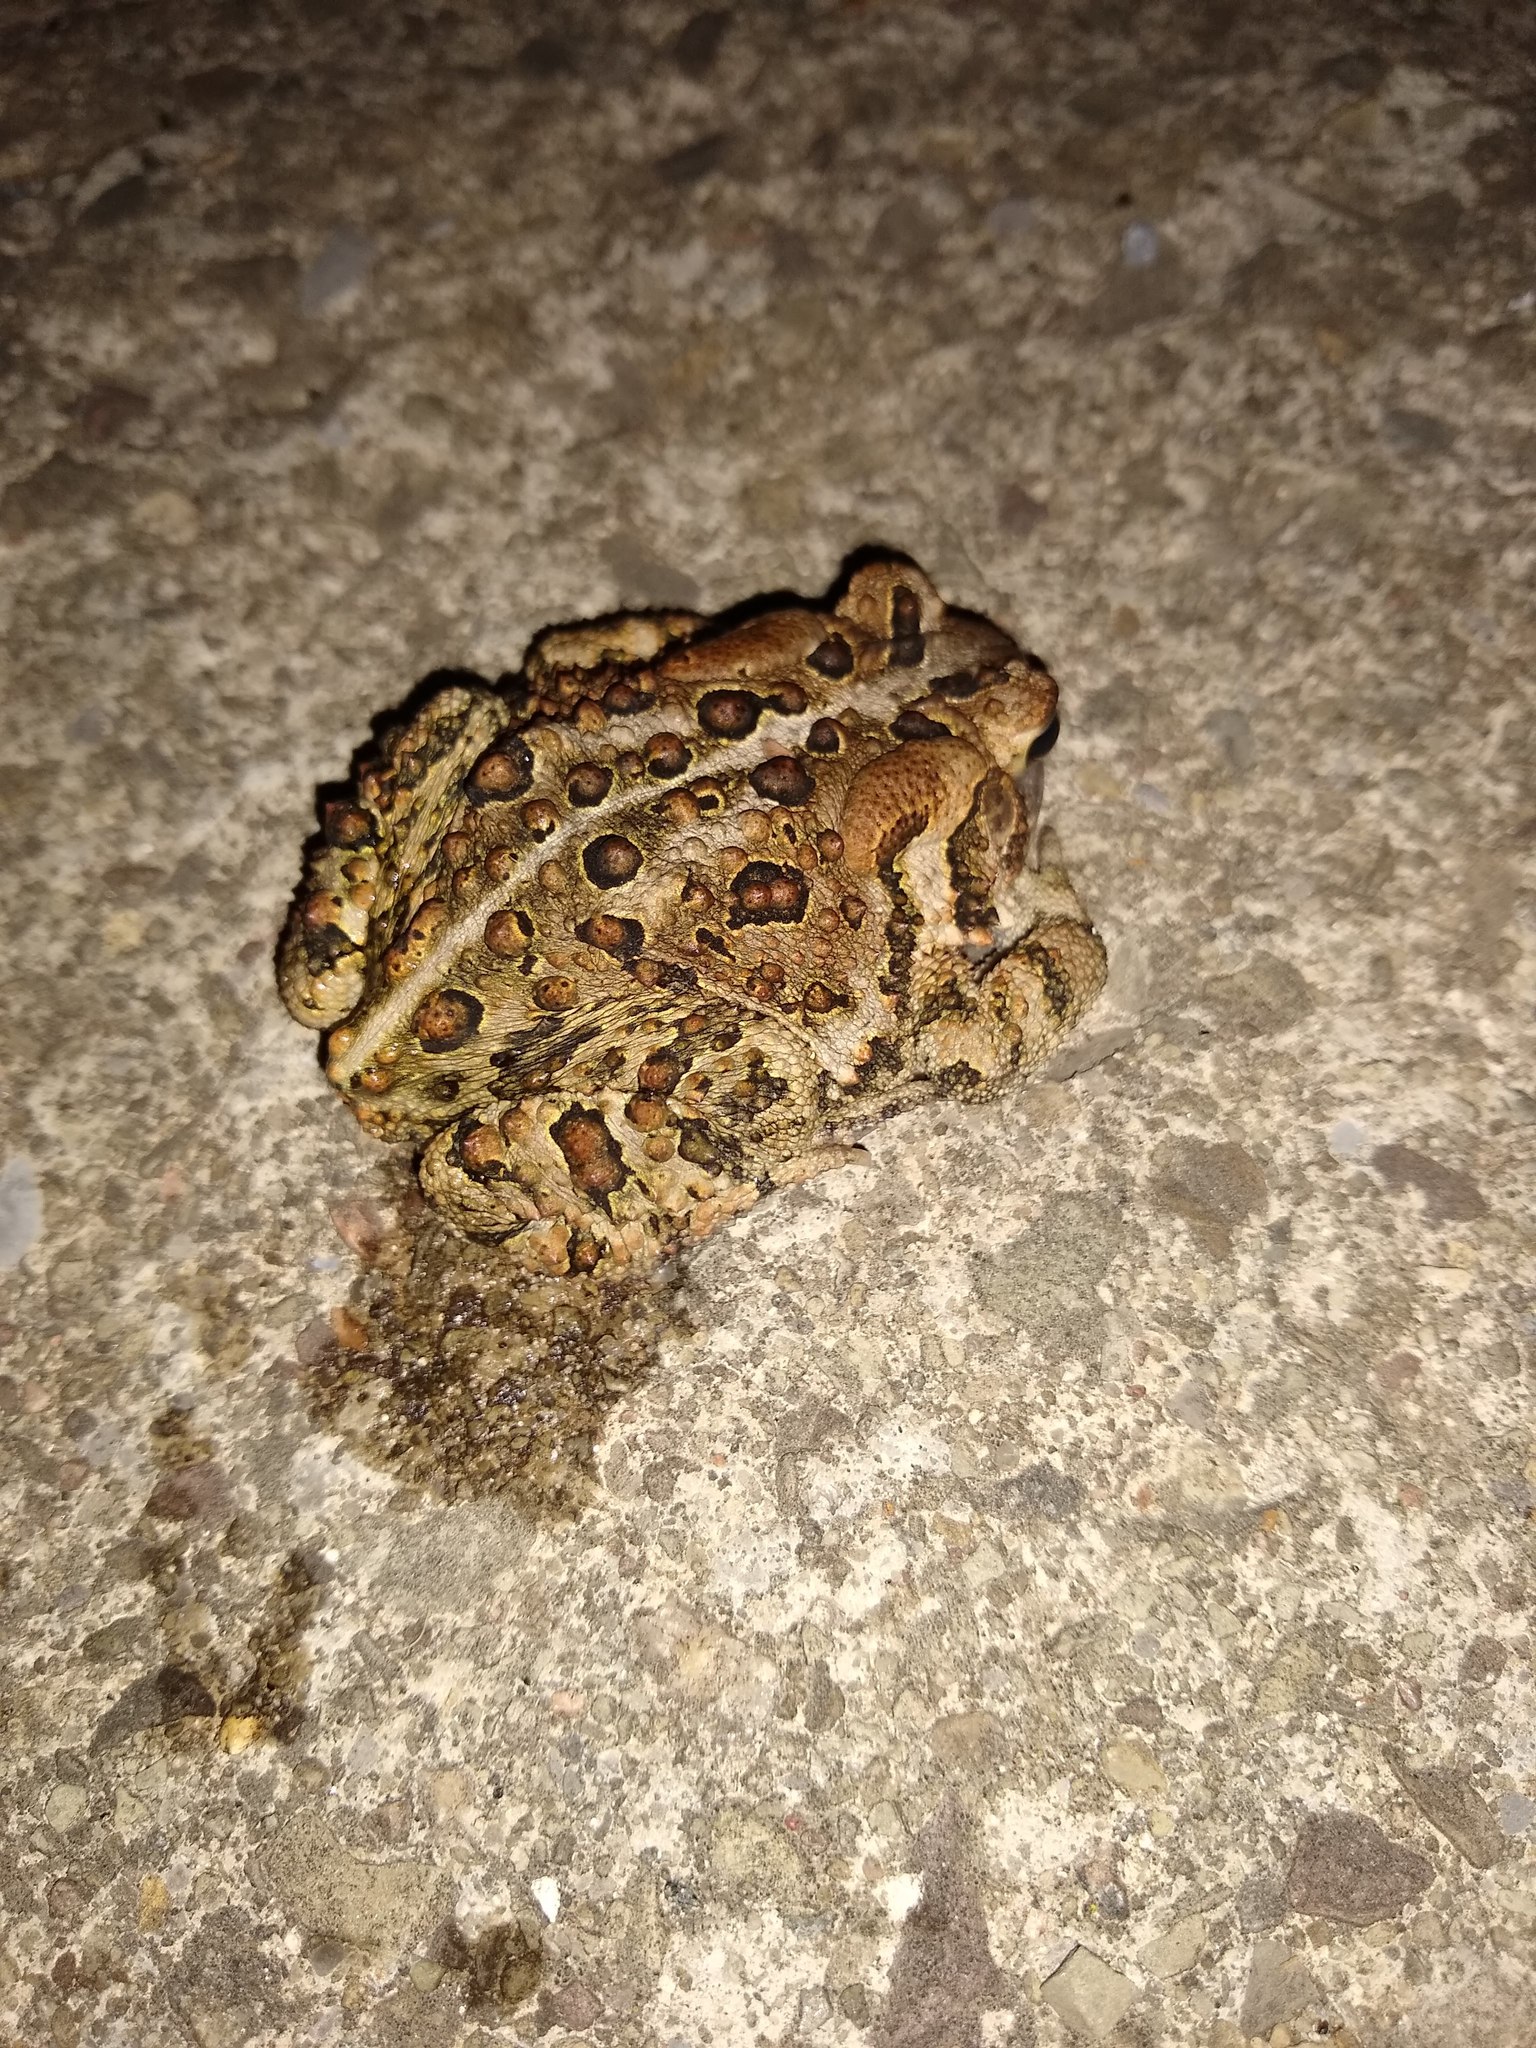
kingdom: Animalia
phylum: Chordata
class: Amphibia
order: Anura
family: Bufonidae
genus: Anaxyrus
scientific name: Anaxyrus americanus
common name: American toad
